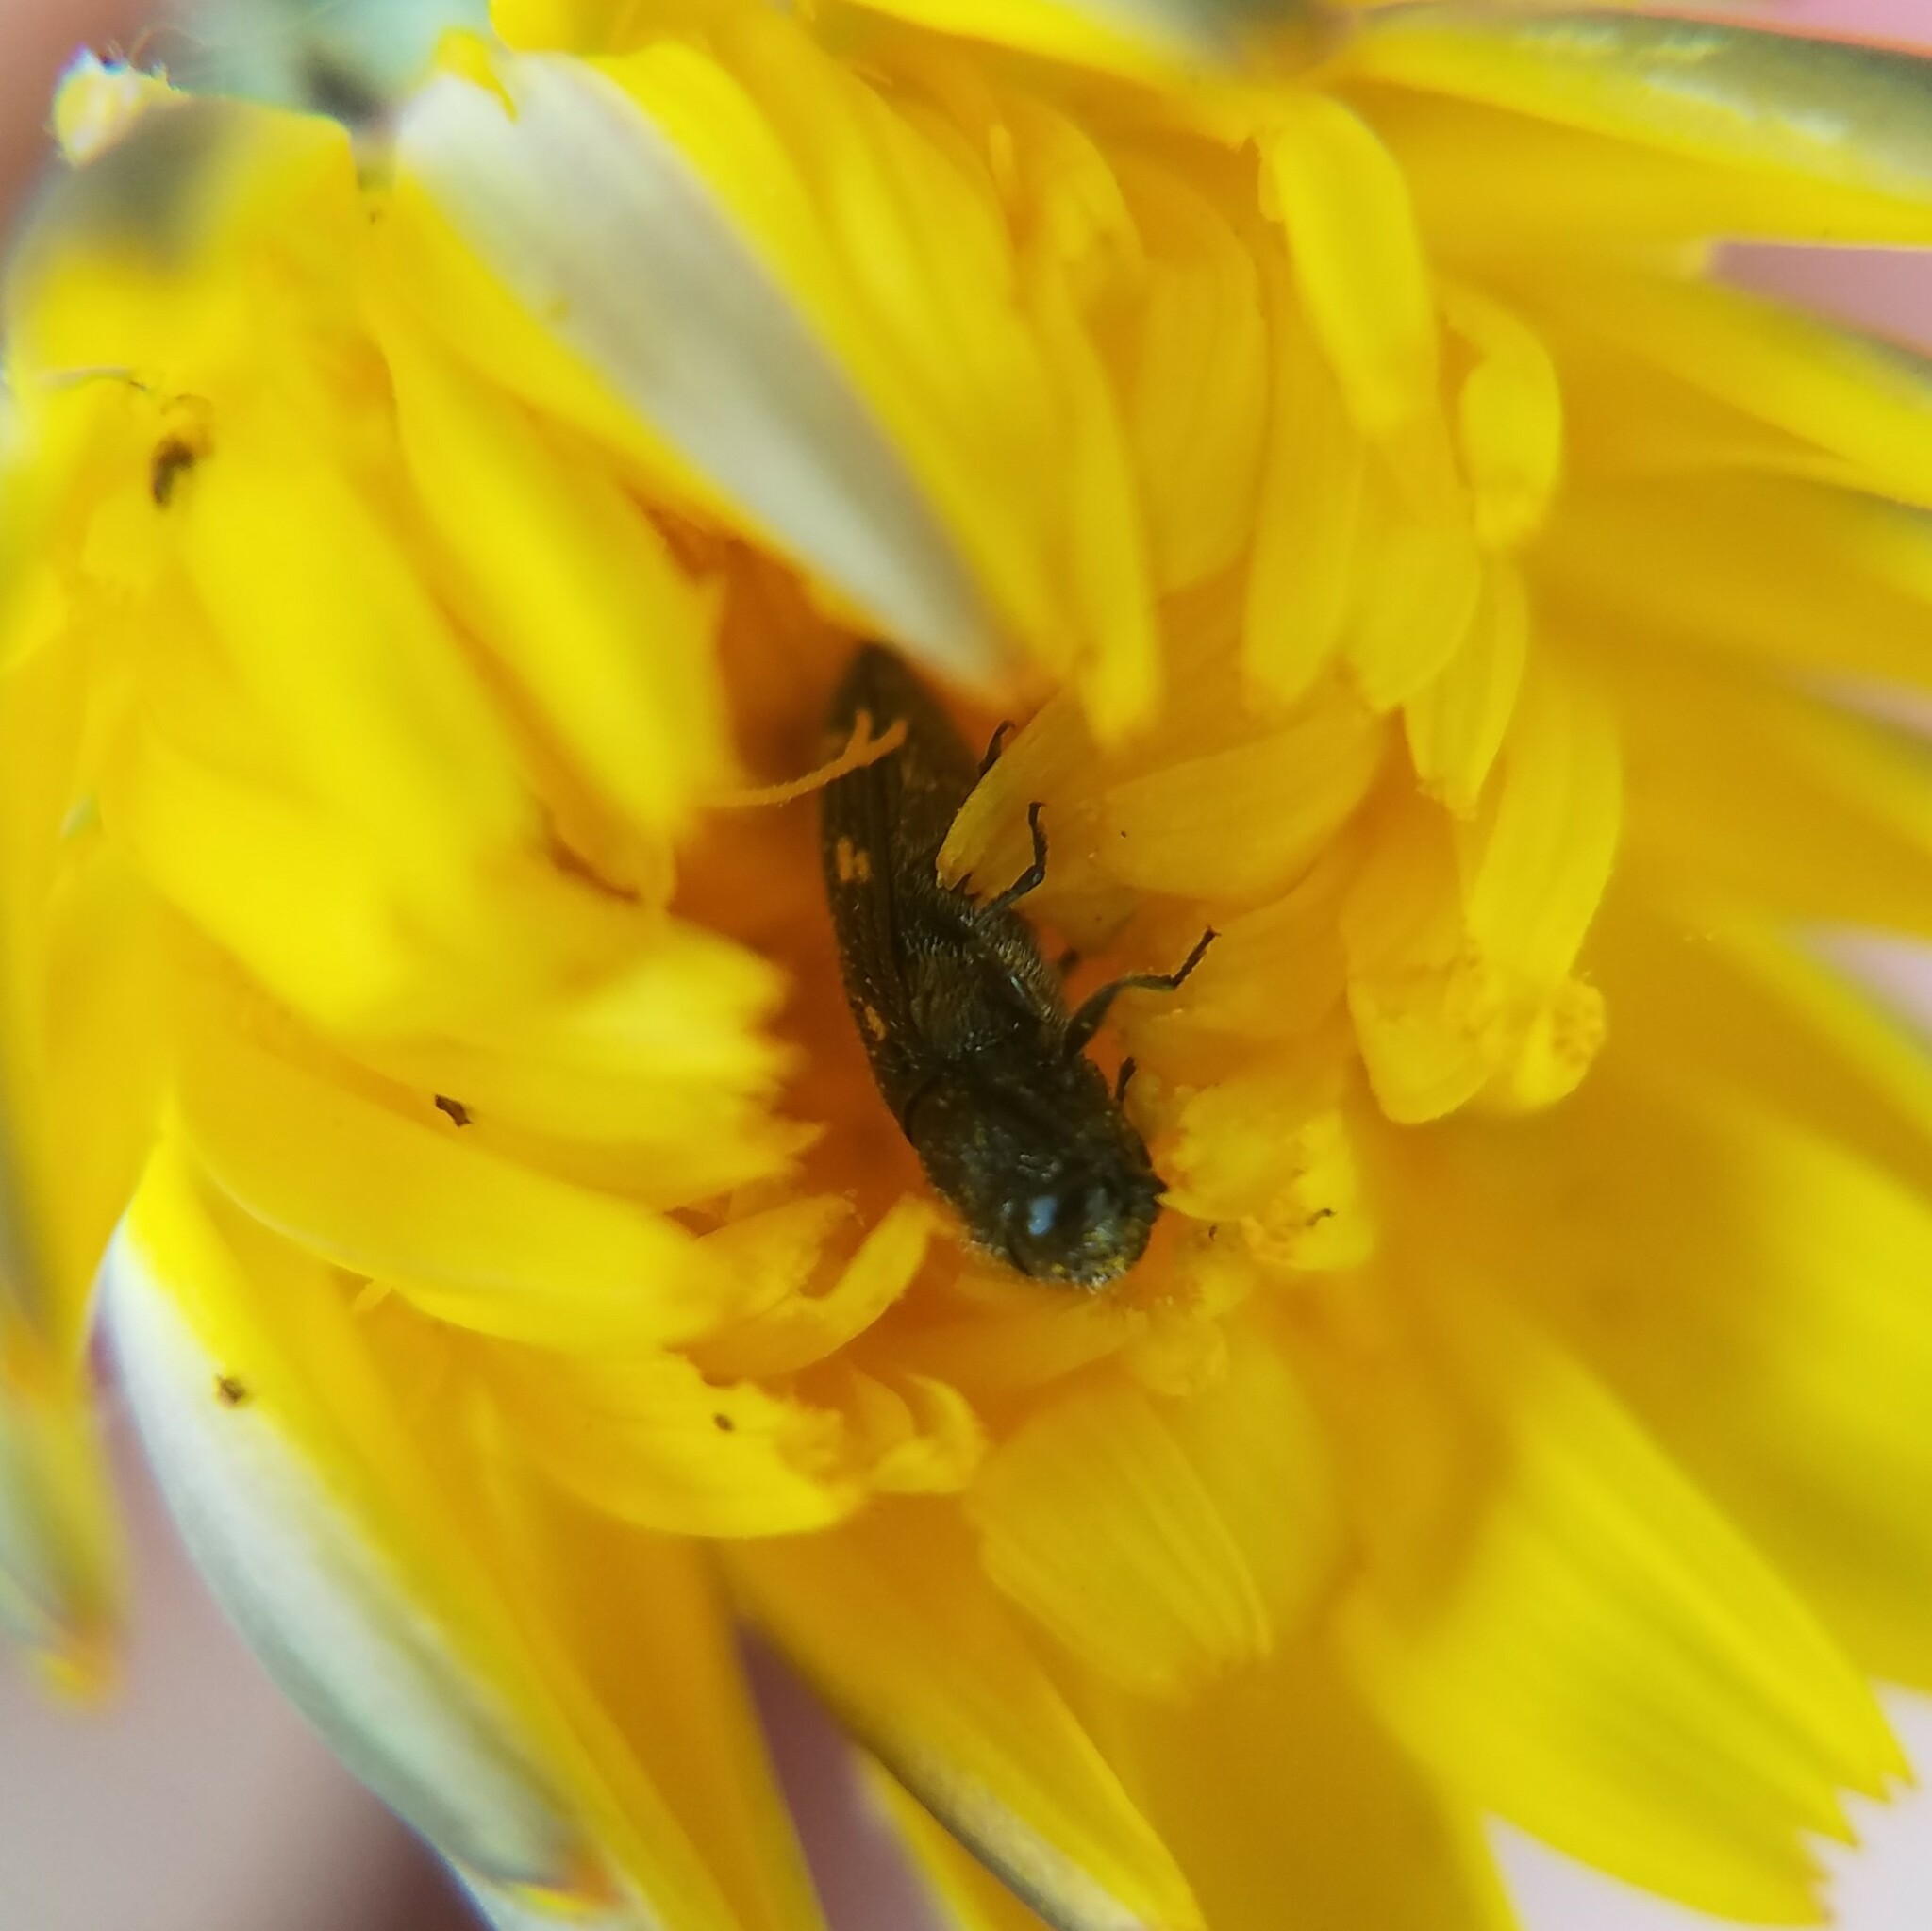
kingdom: Animalia
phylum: Arthropoda
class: Insecta
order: Coleoptera
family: Buprestidae
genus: Acmaeodera
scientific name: Acmaeodera tubulus
